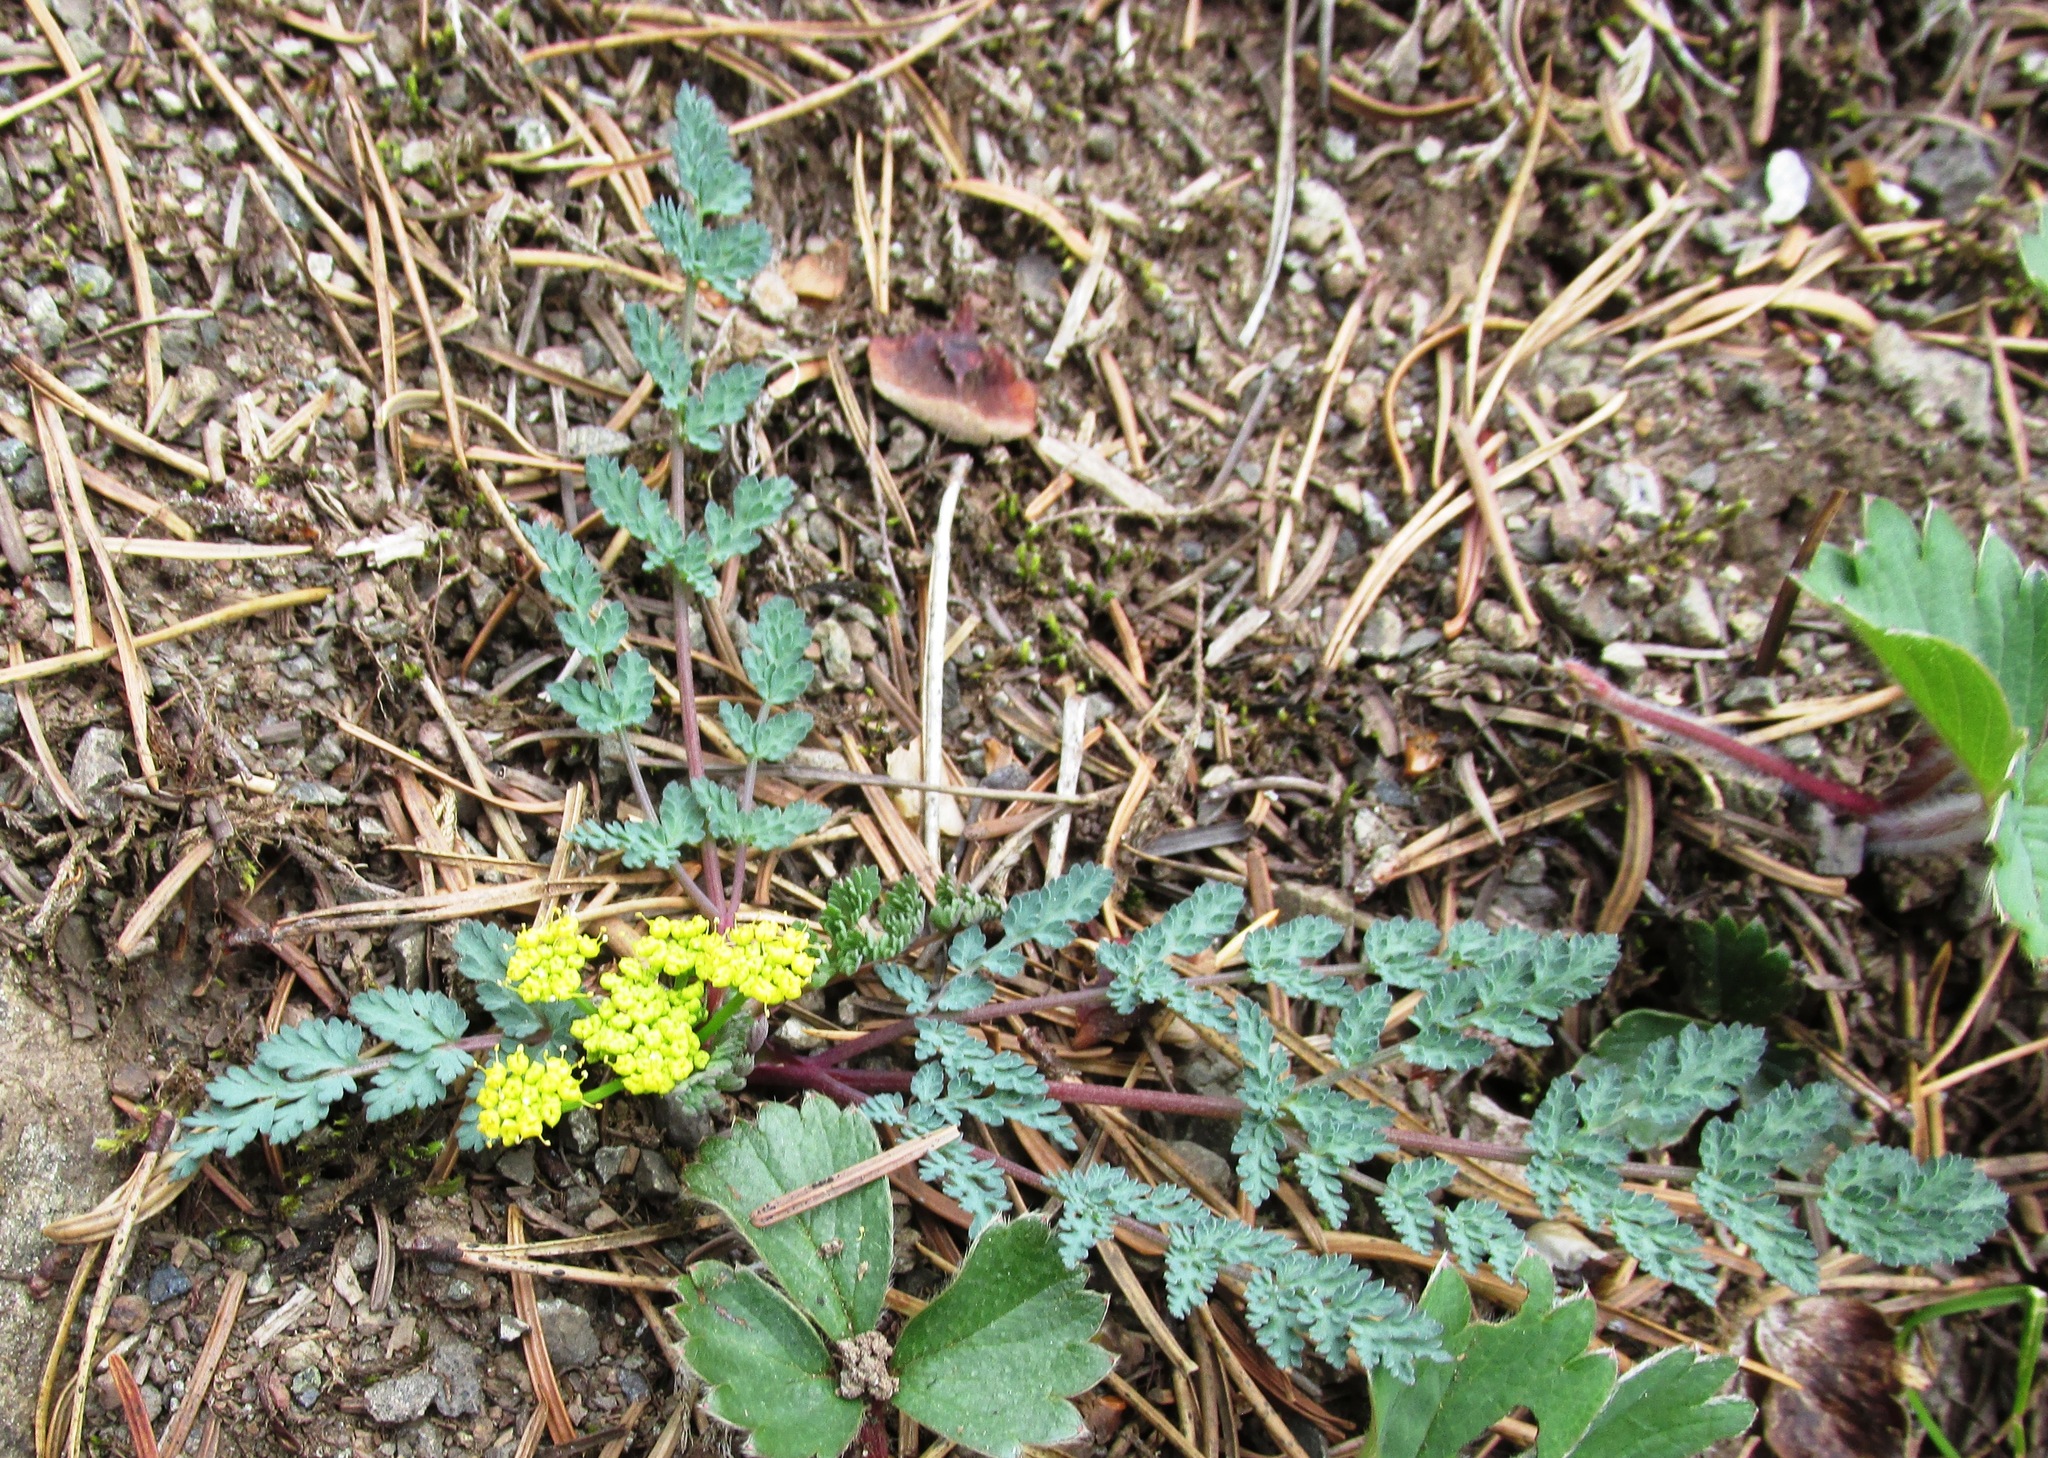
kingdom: Plantae
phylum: Tracheophyta
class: Magnoliopsida
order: Apiales
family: Apiaceae
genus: Lomatium
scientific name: Lomatium martindalei
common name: Cascade desert-parsley
